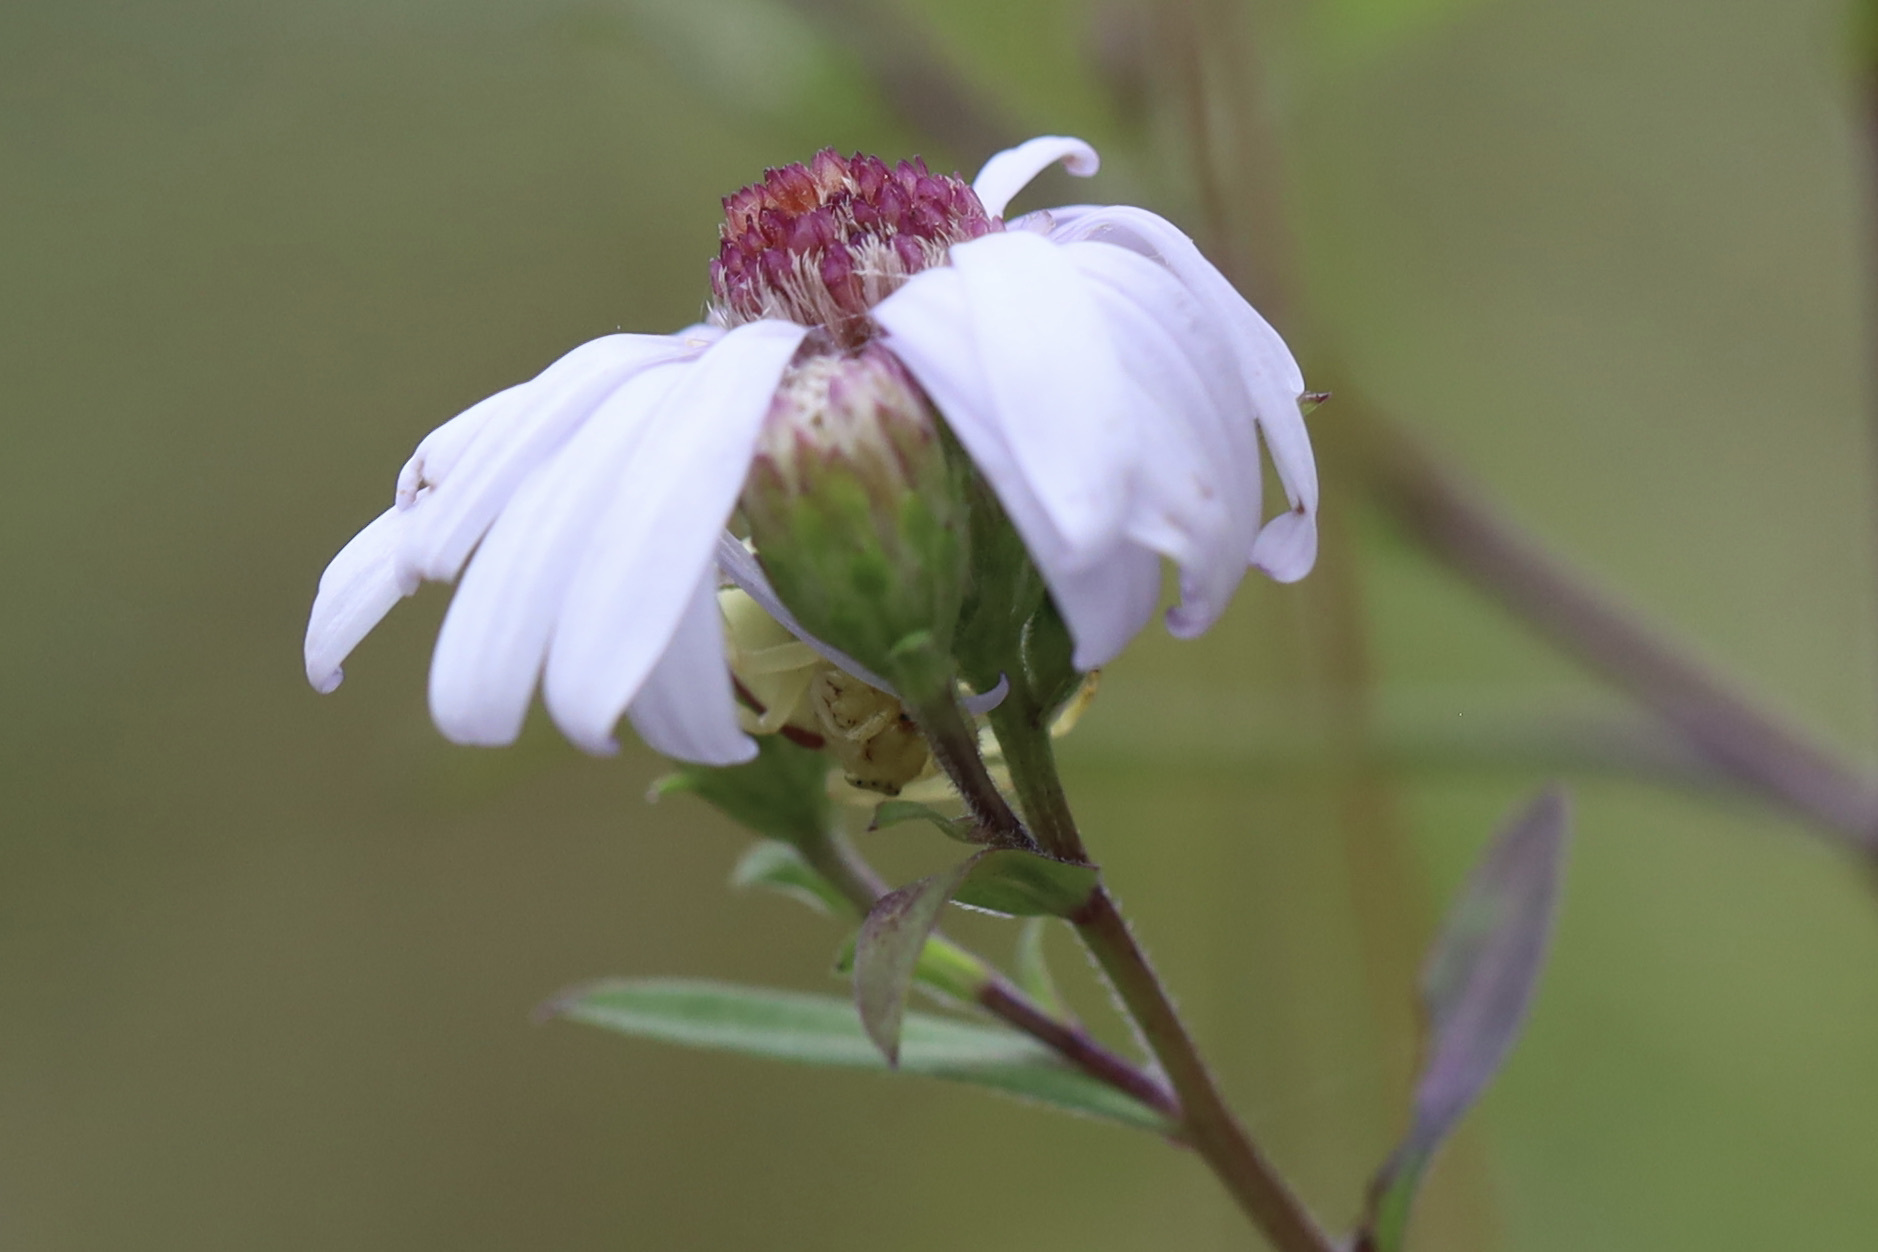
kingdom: Animalia
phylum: Arthropoda
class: Arachnida
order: Araneae
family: Thomisidae
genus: Misumena
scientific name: Misumena vatia
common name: Goldenrod crab spider
